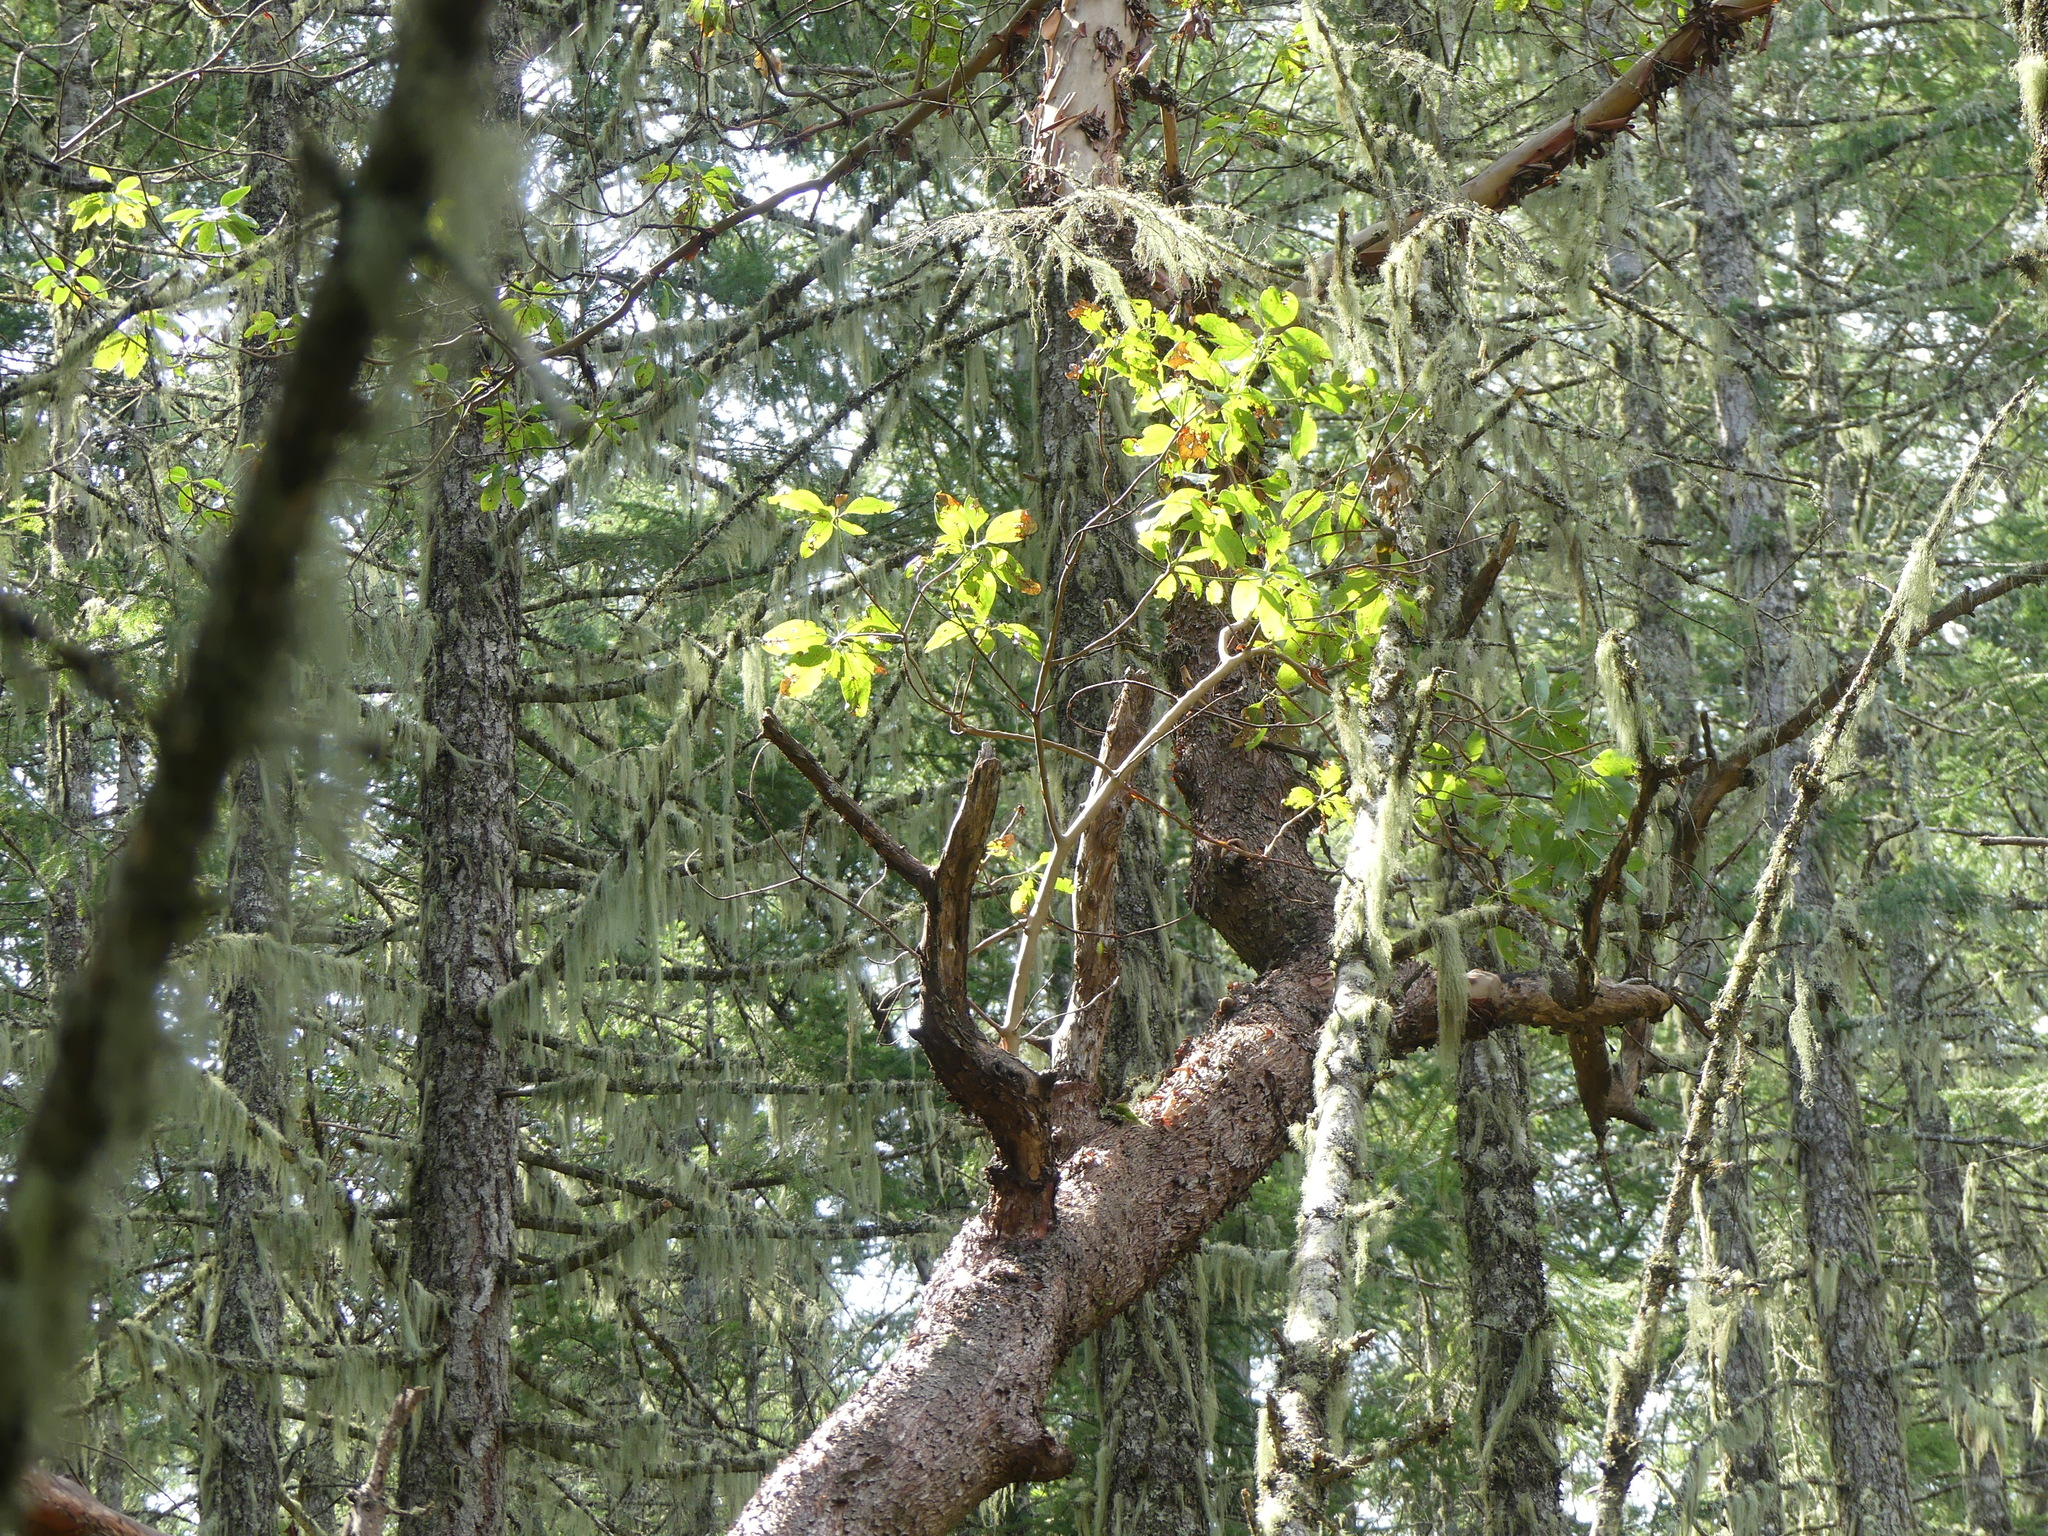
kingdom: Plantae
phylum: Tracheophyta
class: Magnoliopsida
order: Ericales
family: Ericaceae
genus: Arbutus
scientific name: Arbutus menziesii
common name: Pacific madrone
